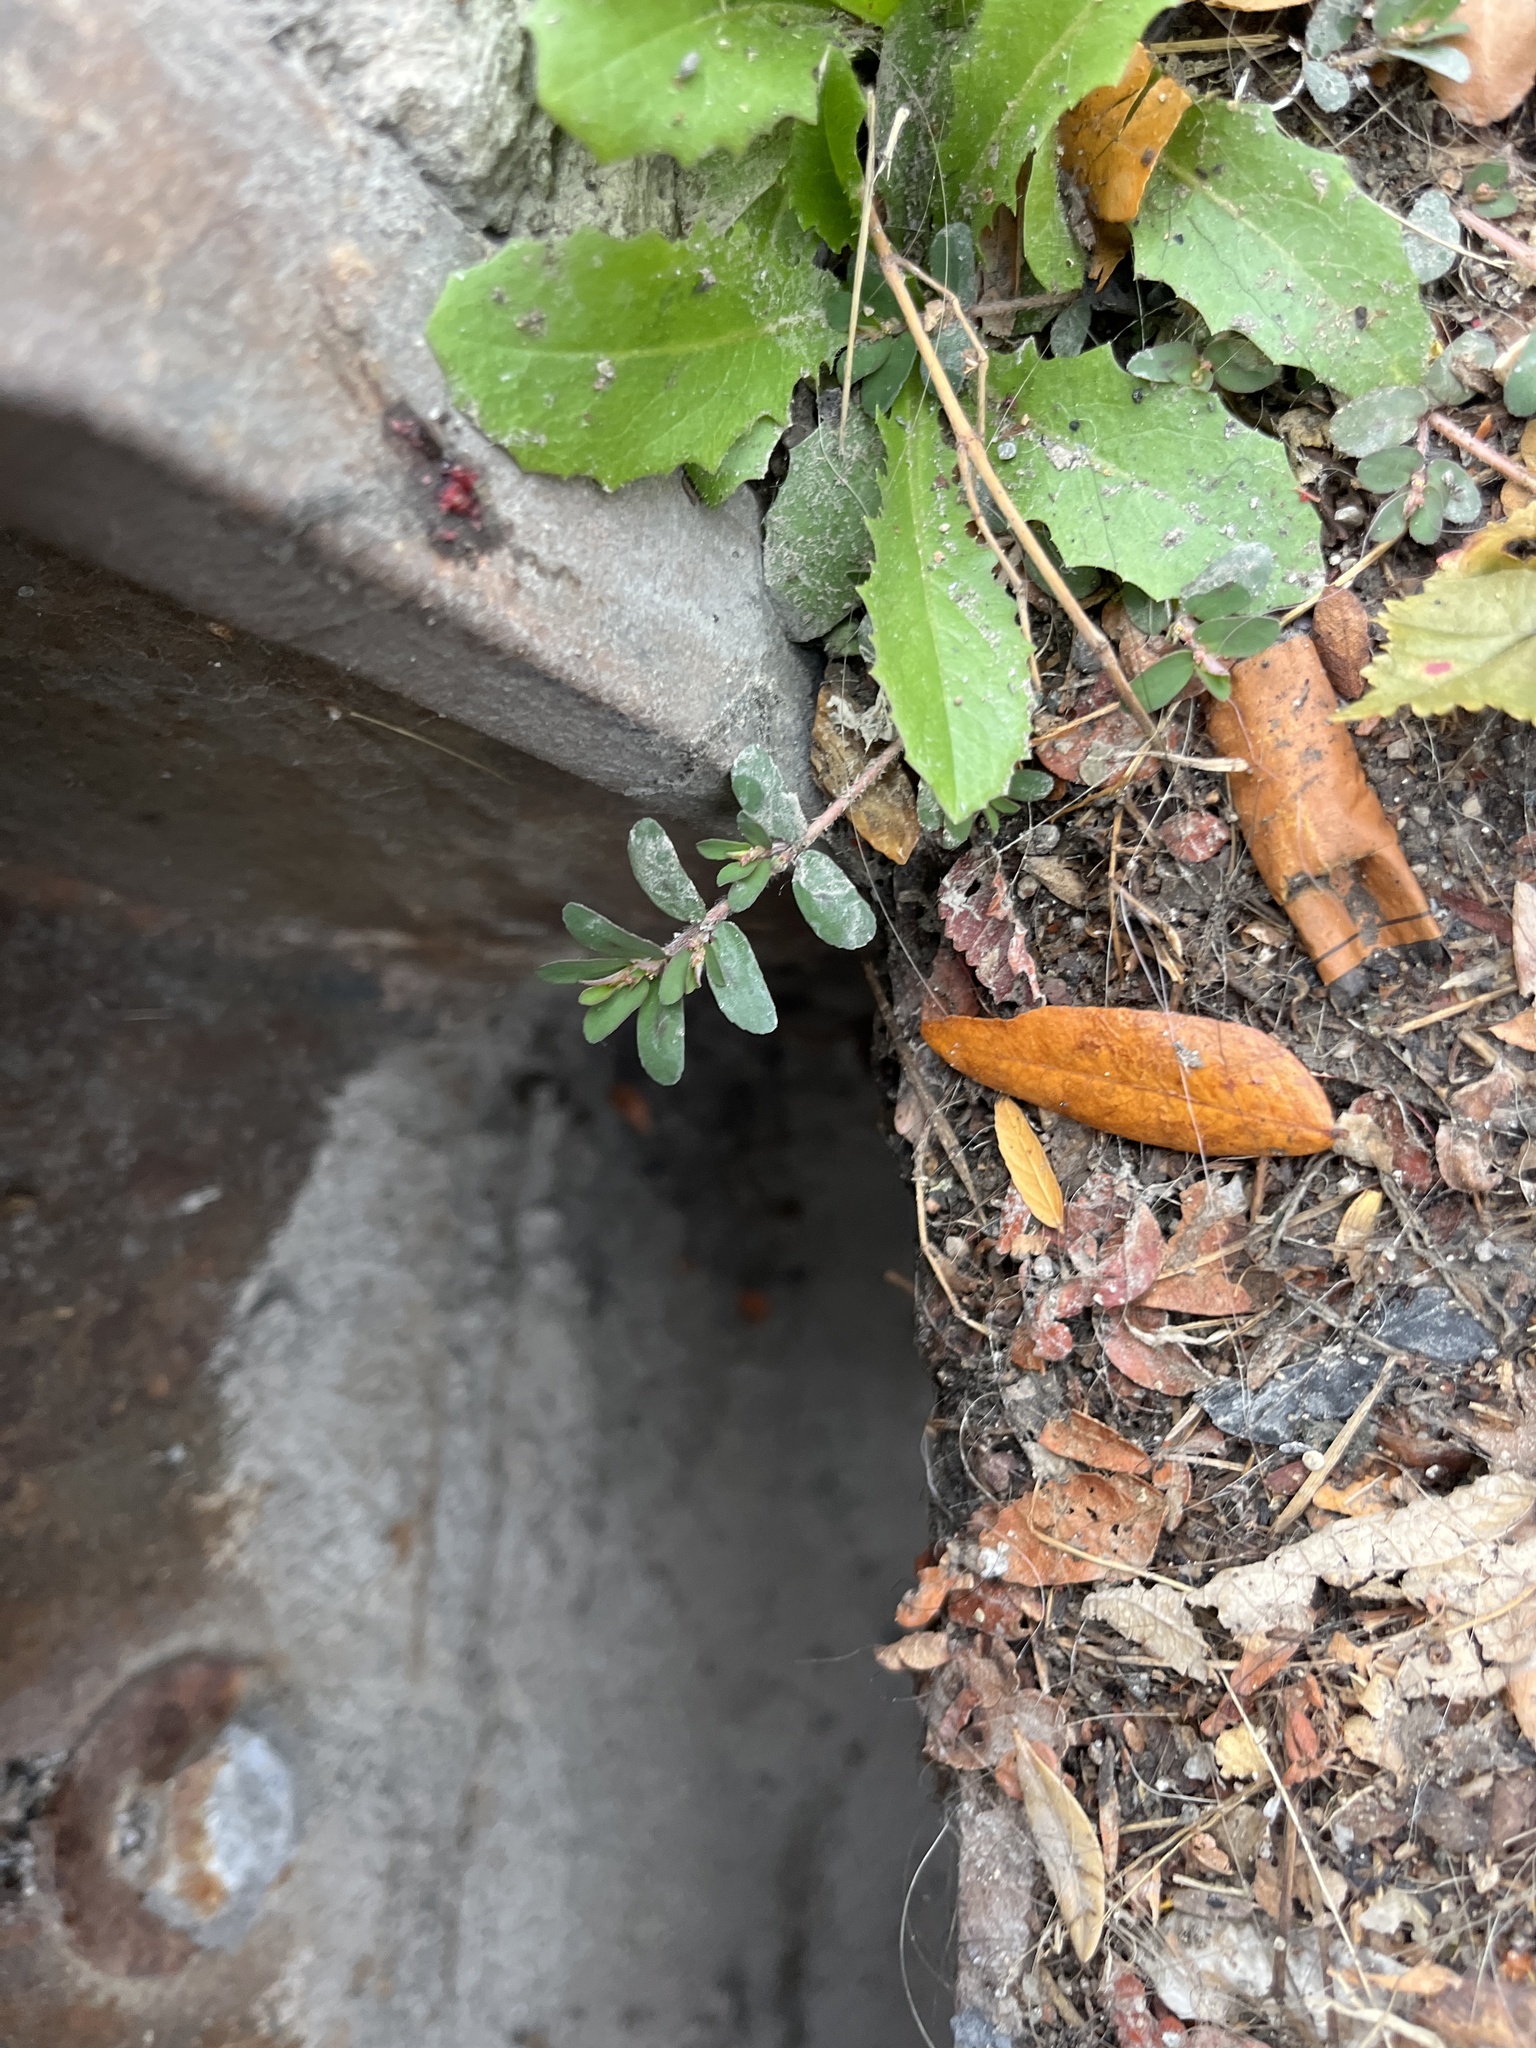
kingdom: Plantae
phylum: Tracheophyta
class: Magnoliopsida
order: Malpighiales
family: Euphorbiaceae
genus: Euphorbia
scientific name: Euphorbia maculata
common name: Spotted spurge
